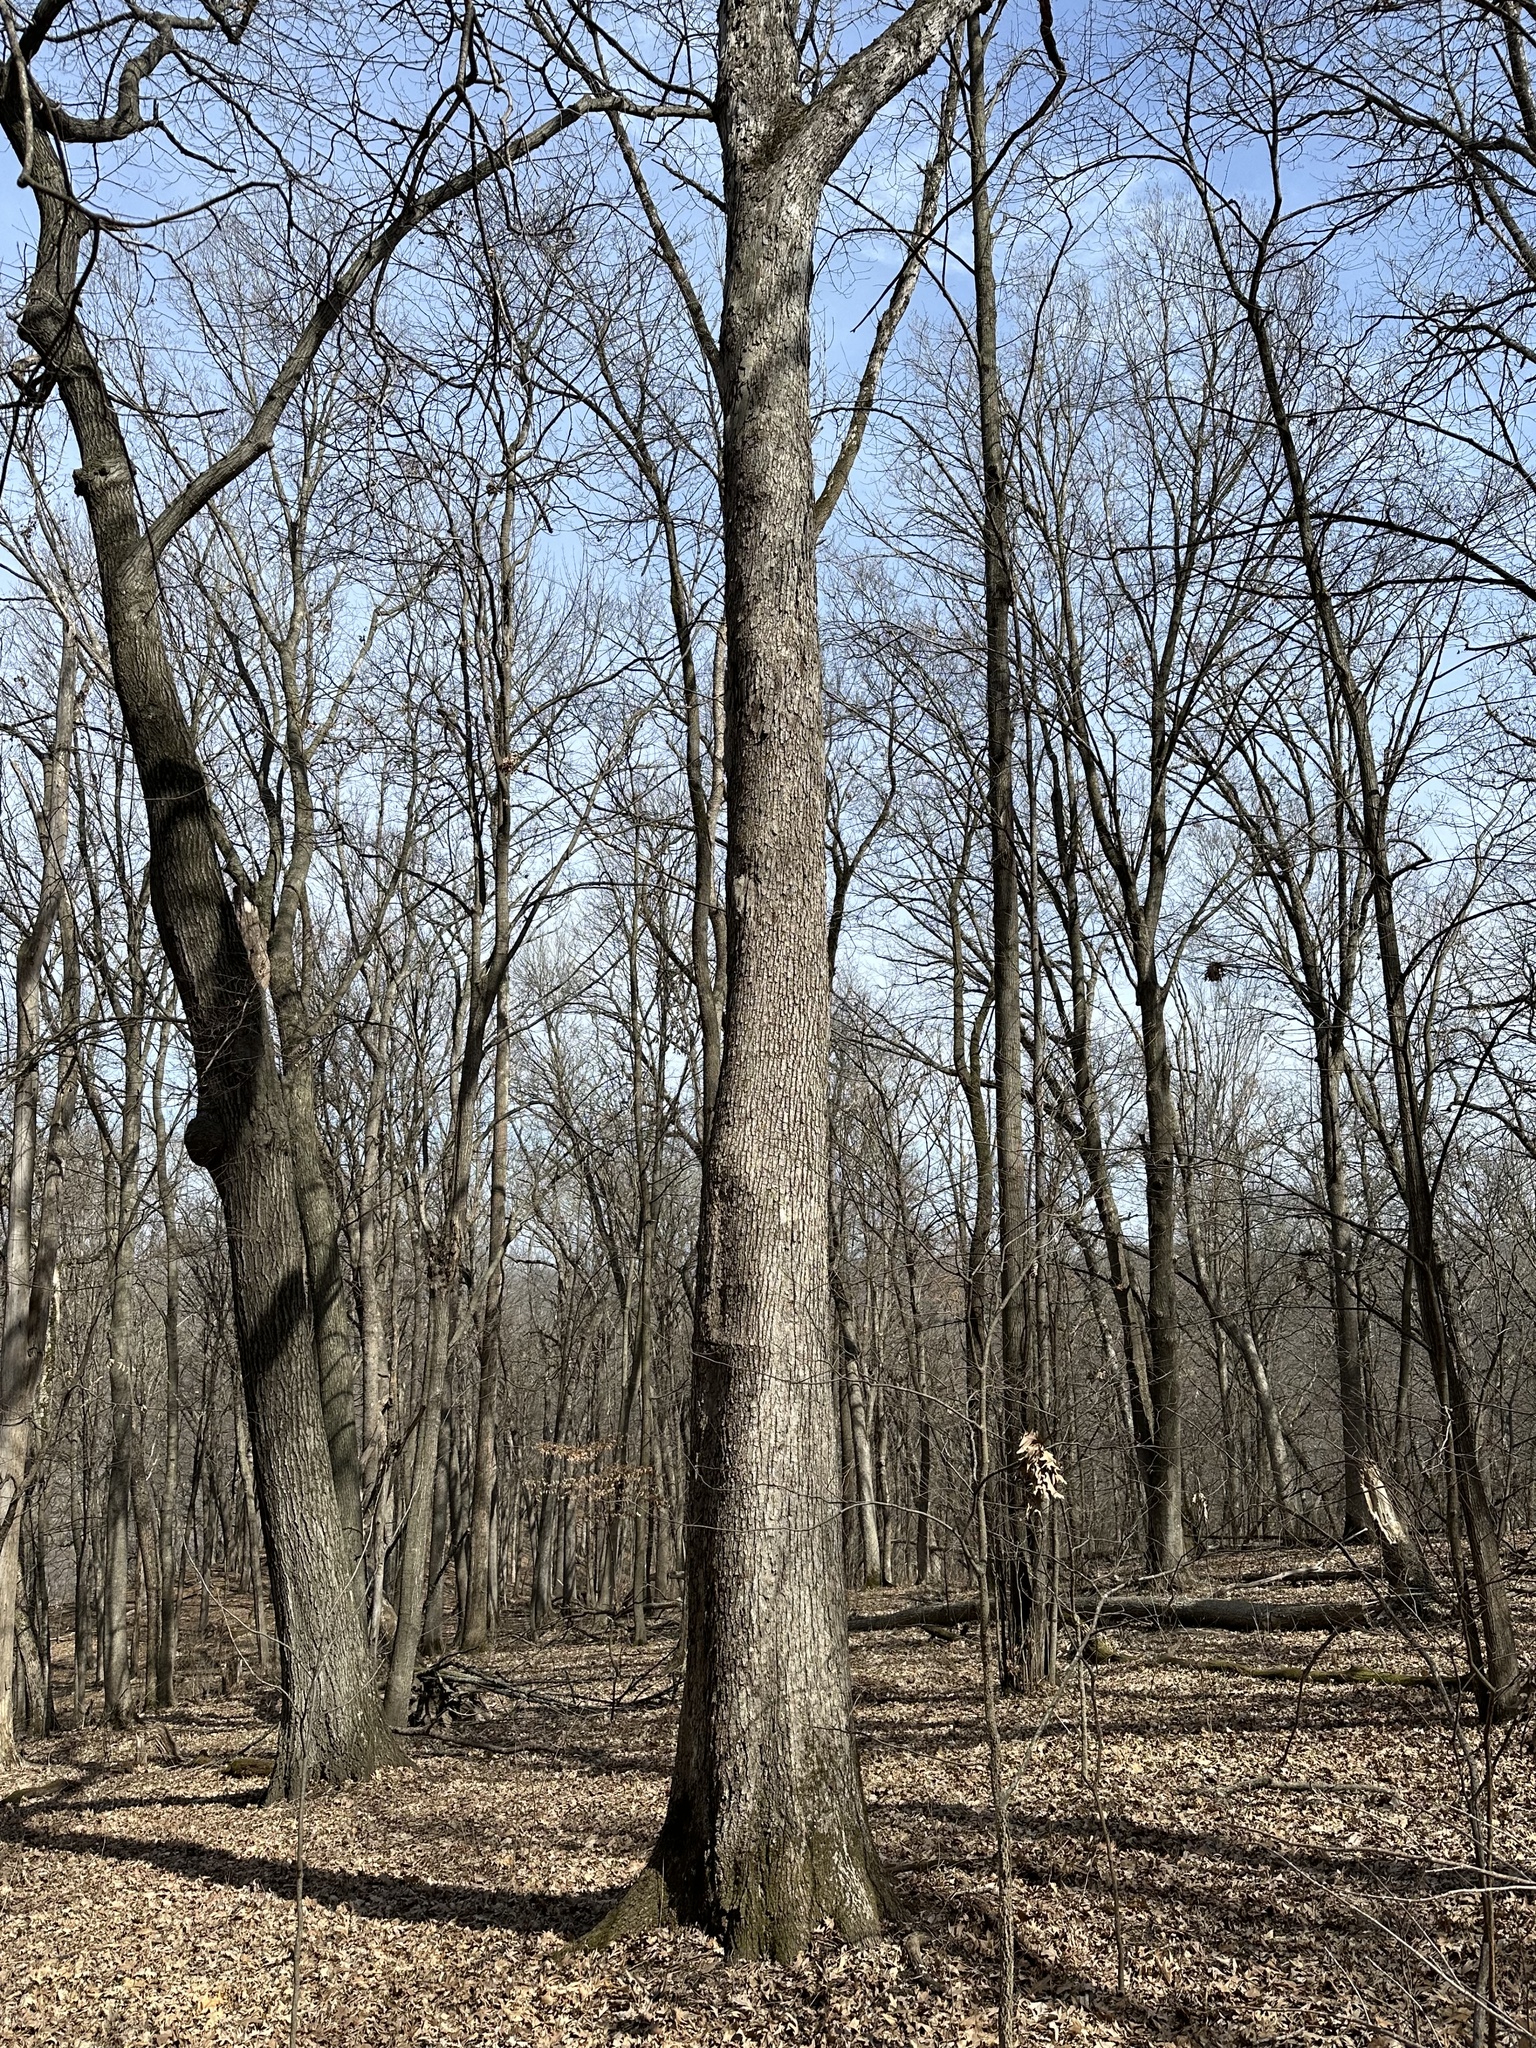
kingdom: Plantae
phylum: Tracheophyta
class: Magnoliopsida
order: Fagales
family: Fagaceae
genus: Quercus
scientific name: Quercus alba
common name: White oak
